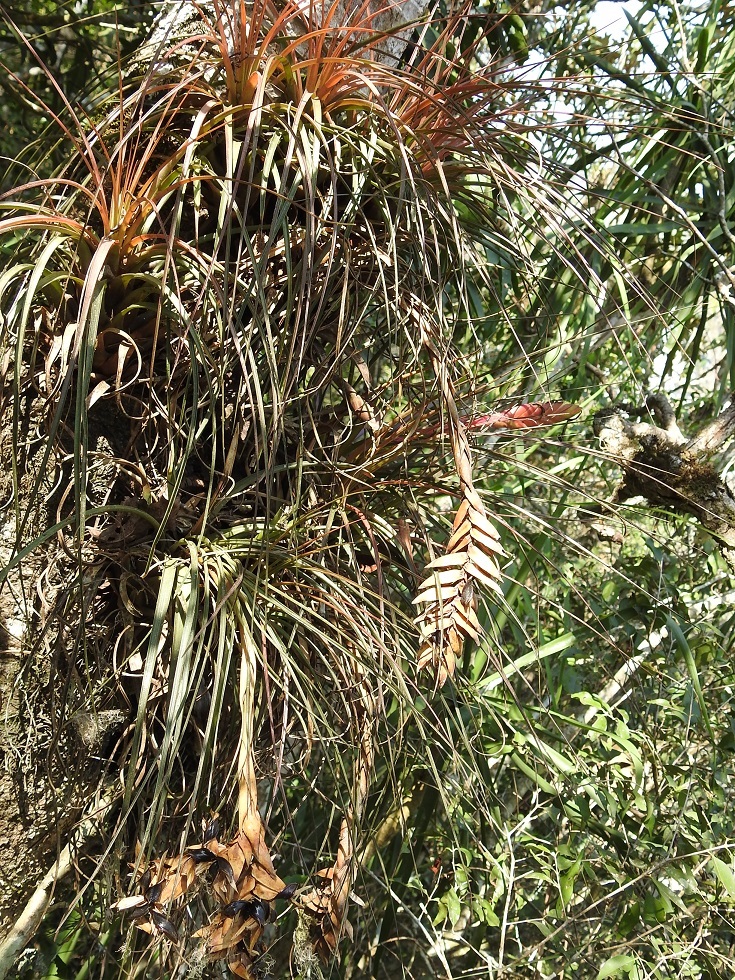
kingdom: Plantae
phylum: Tracheophyta
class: Liliopsida
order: Poales
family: Bromeliaceae
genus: Tillandsia
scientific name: Tillandsia zoquensis
